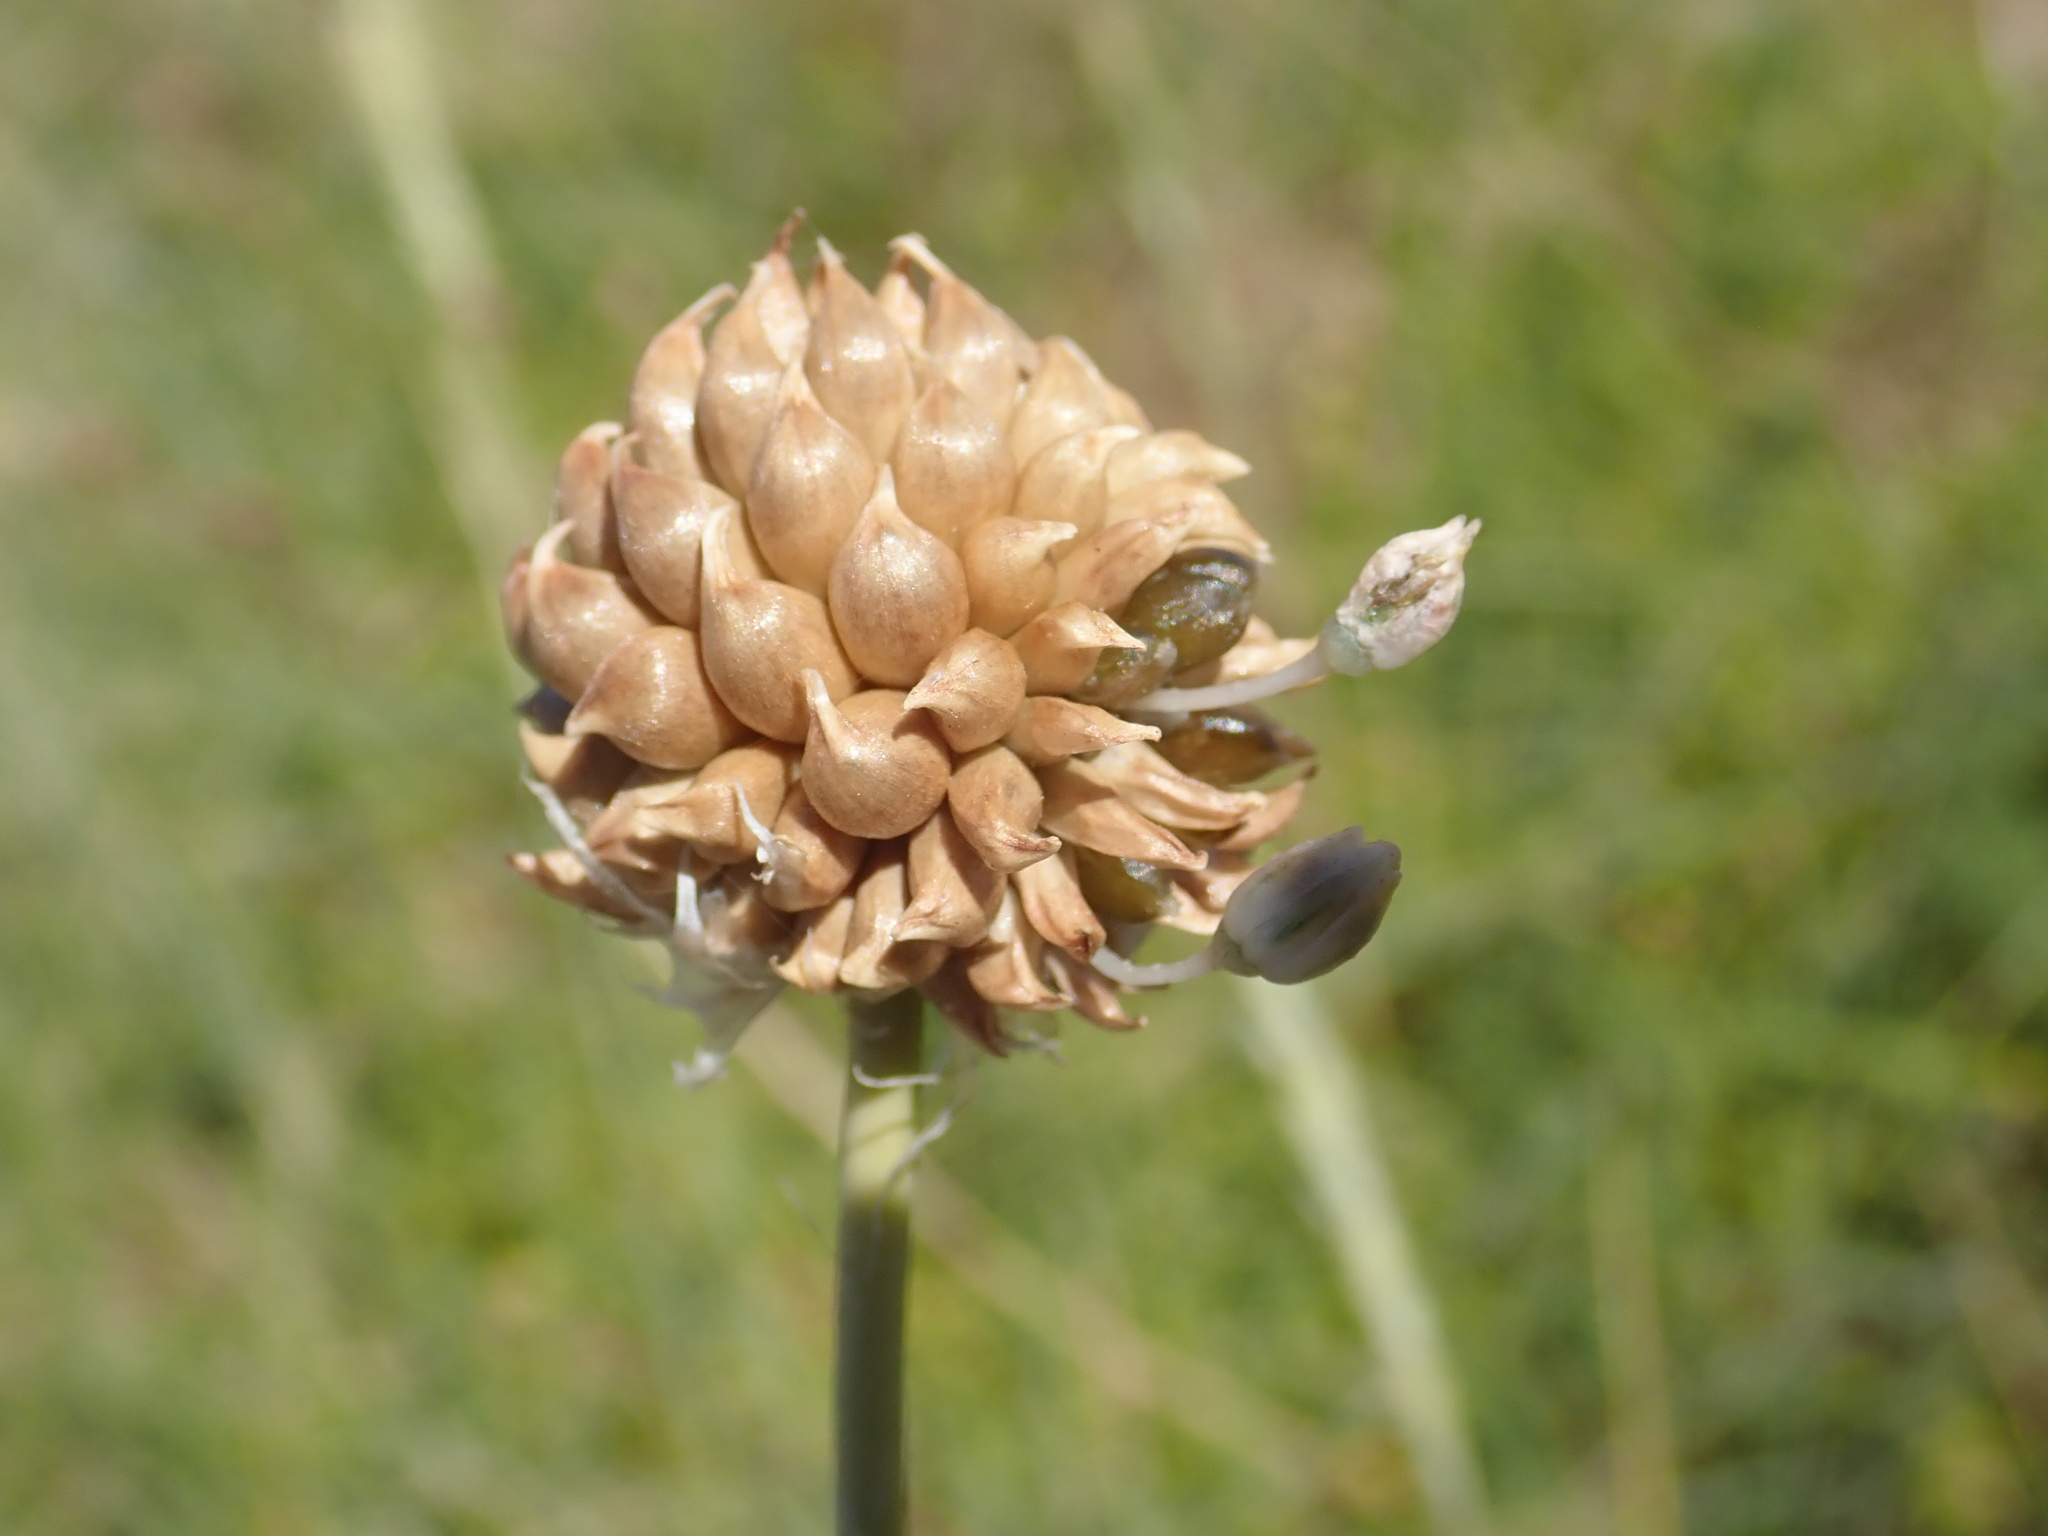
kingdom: Plantae
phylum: Tracheophyta
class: Liliopsida
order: Asparagales
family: Amaryllidaceae
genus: Allium
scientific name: Allium vineale
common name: Crow garlic
